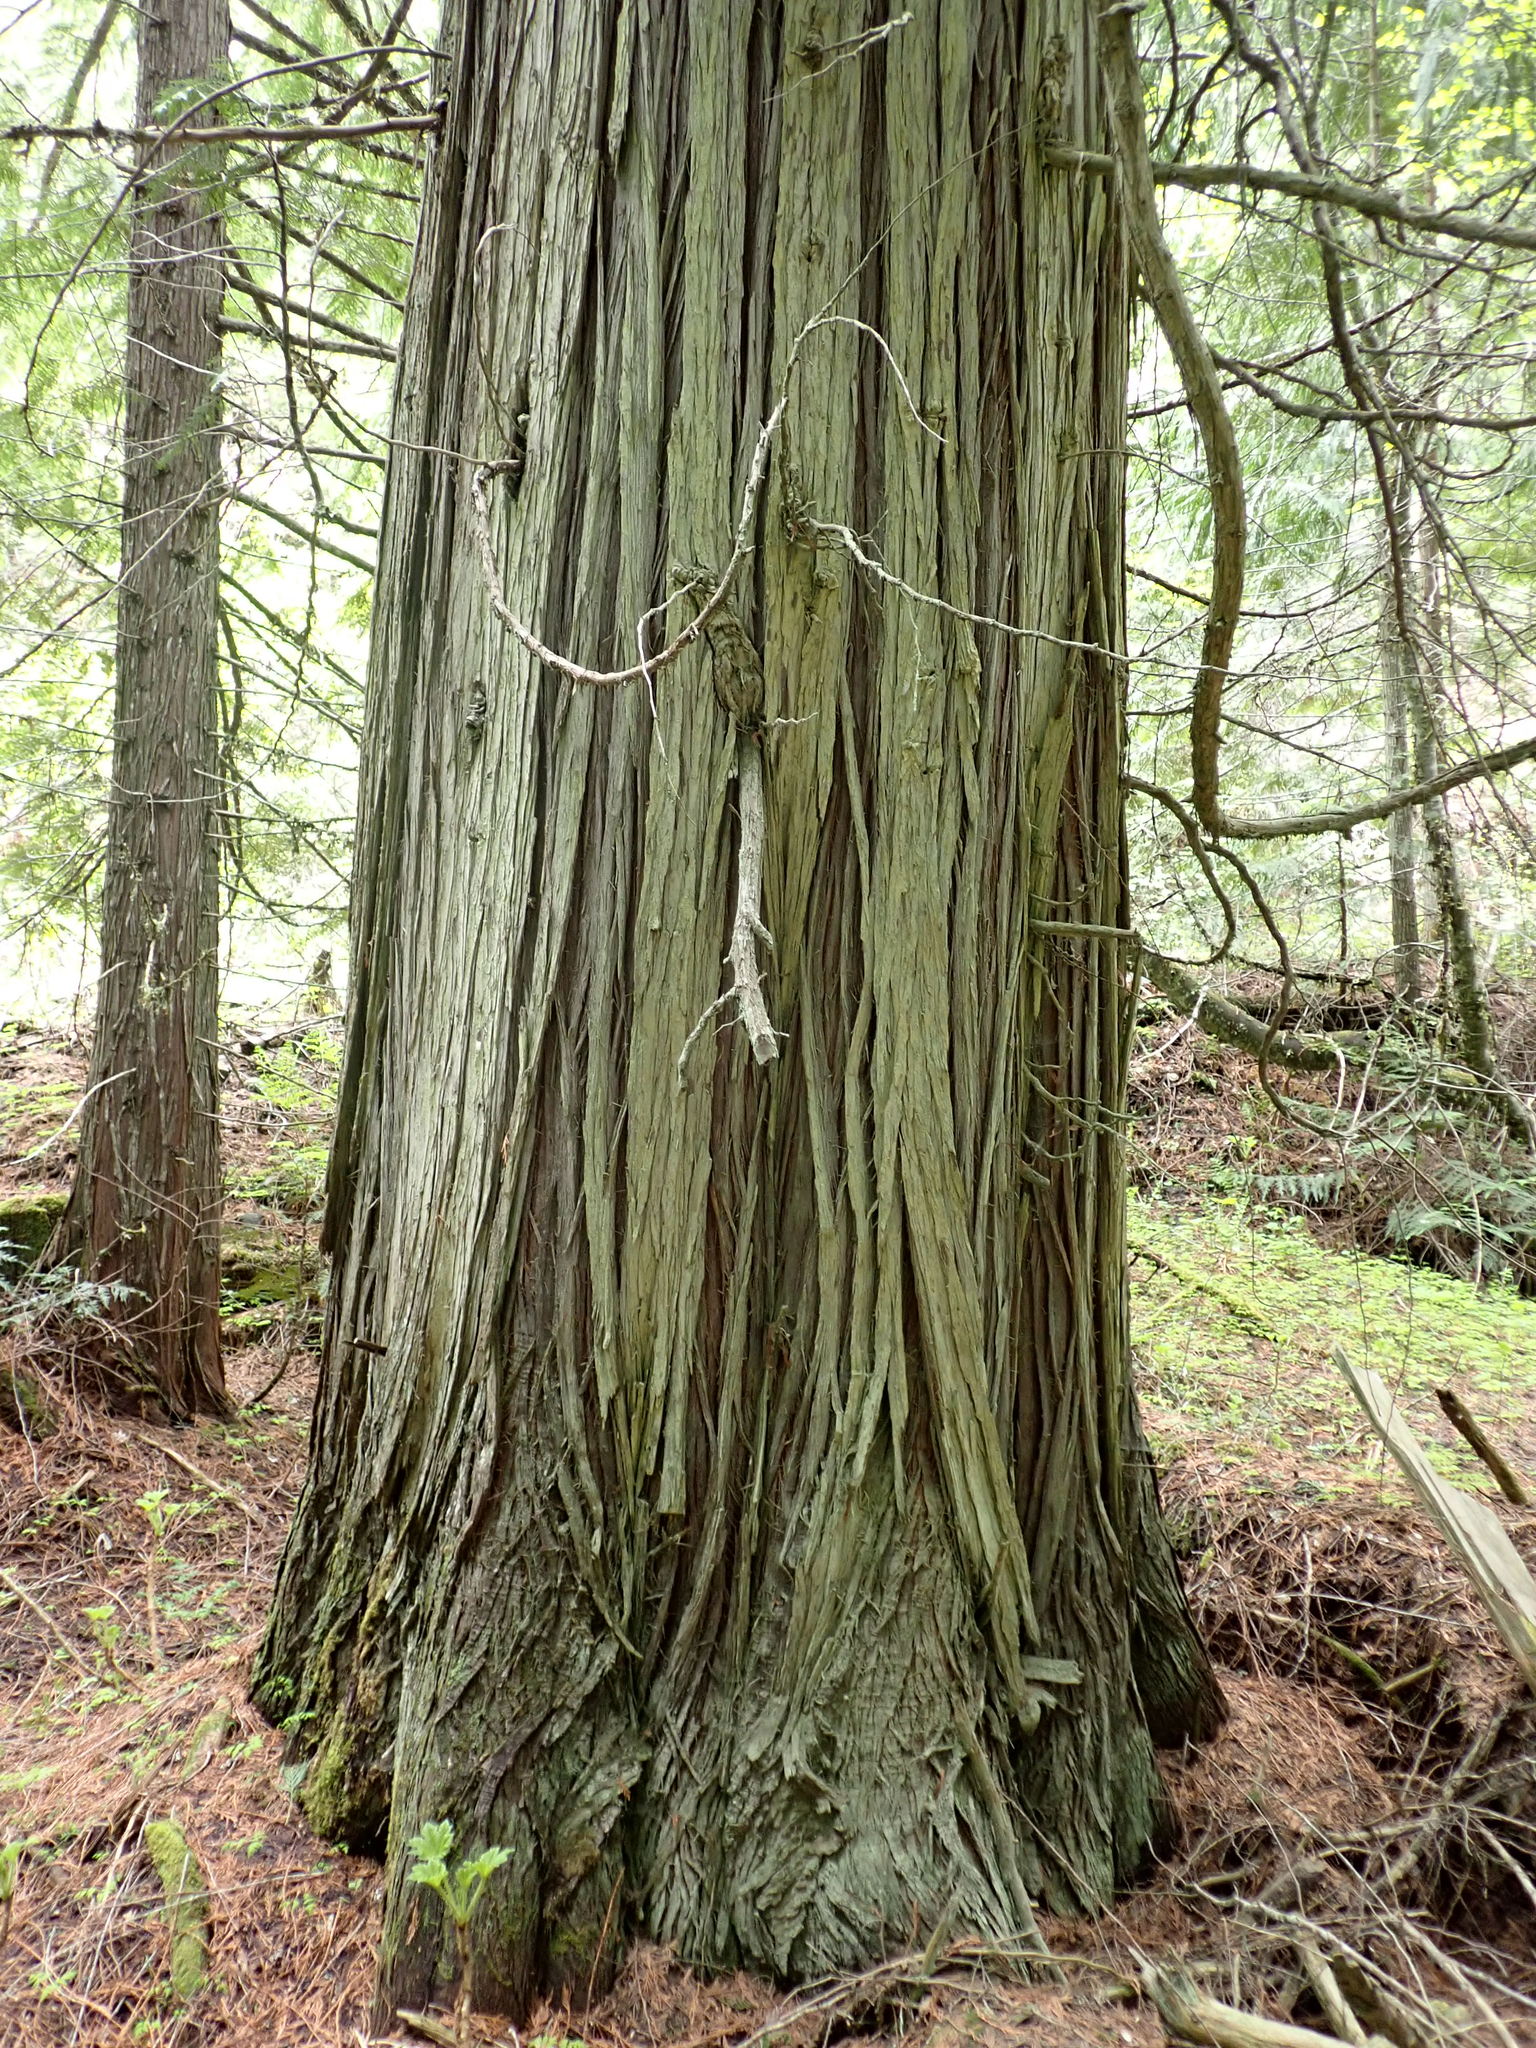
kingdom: Plantae
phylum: Tracheophyta
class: Pinopsida
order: Pinales
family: Cupressaceae
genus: Thuja
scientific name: Thuja plicata
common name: Western red-cedar
